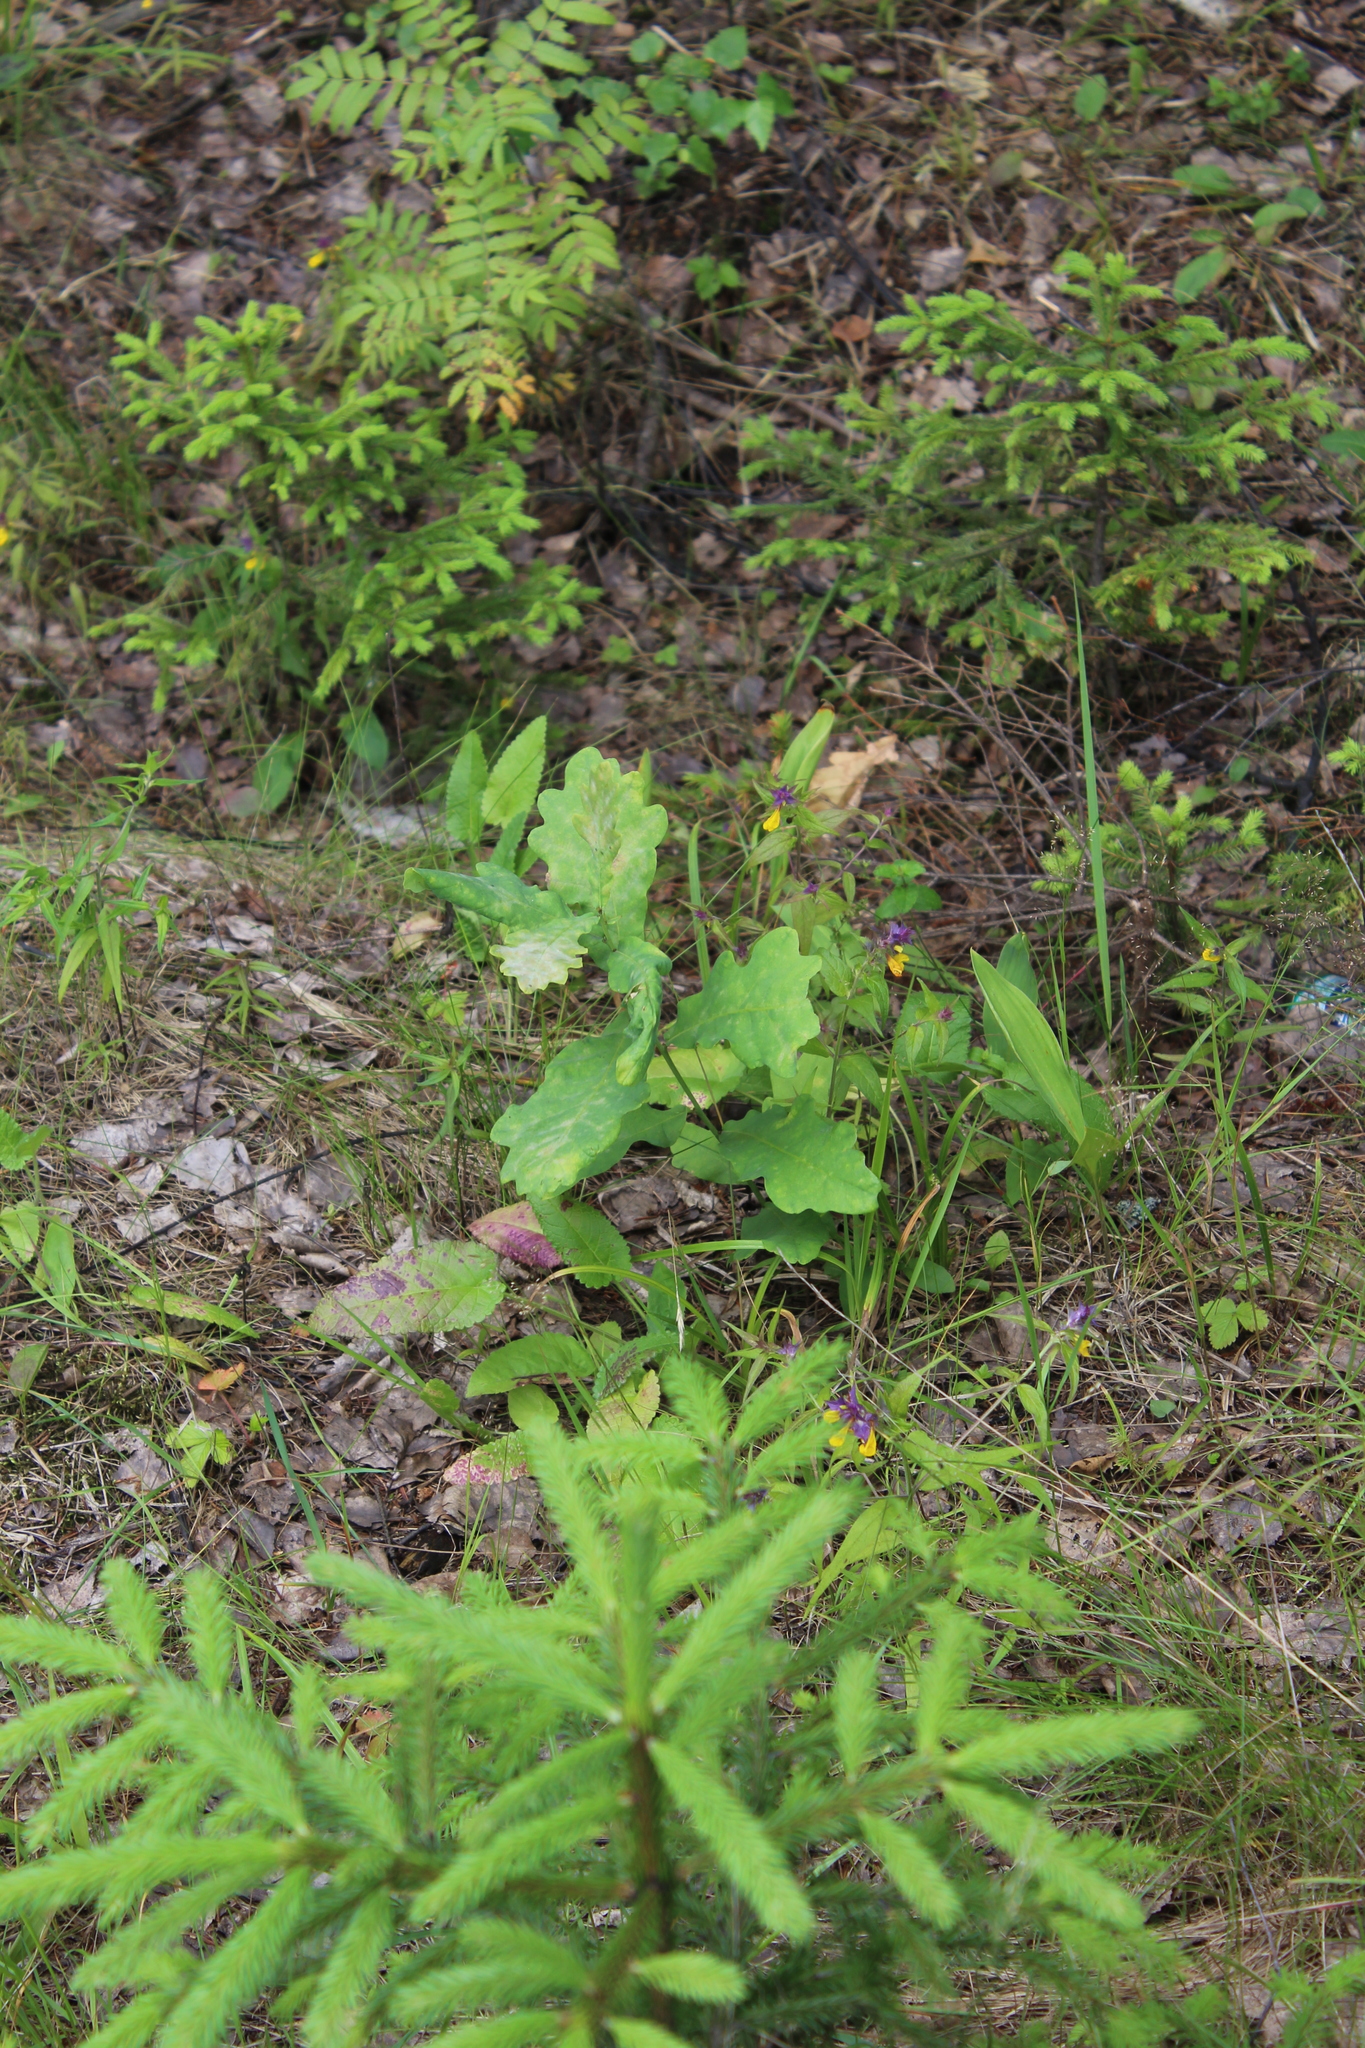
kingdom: Plantae
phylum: Tracheophyta
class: Magnoliopsida
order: Fagales
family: Fagaceae
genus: Quercus
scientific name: Quercus robur
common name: Pedunculate oak
